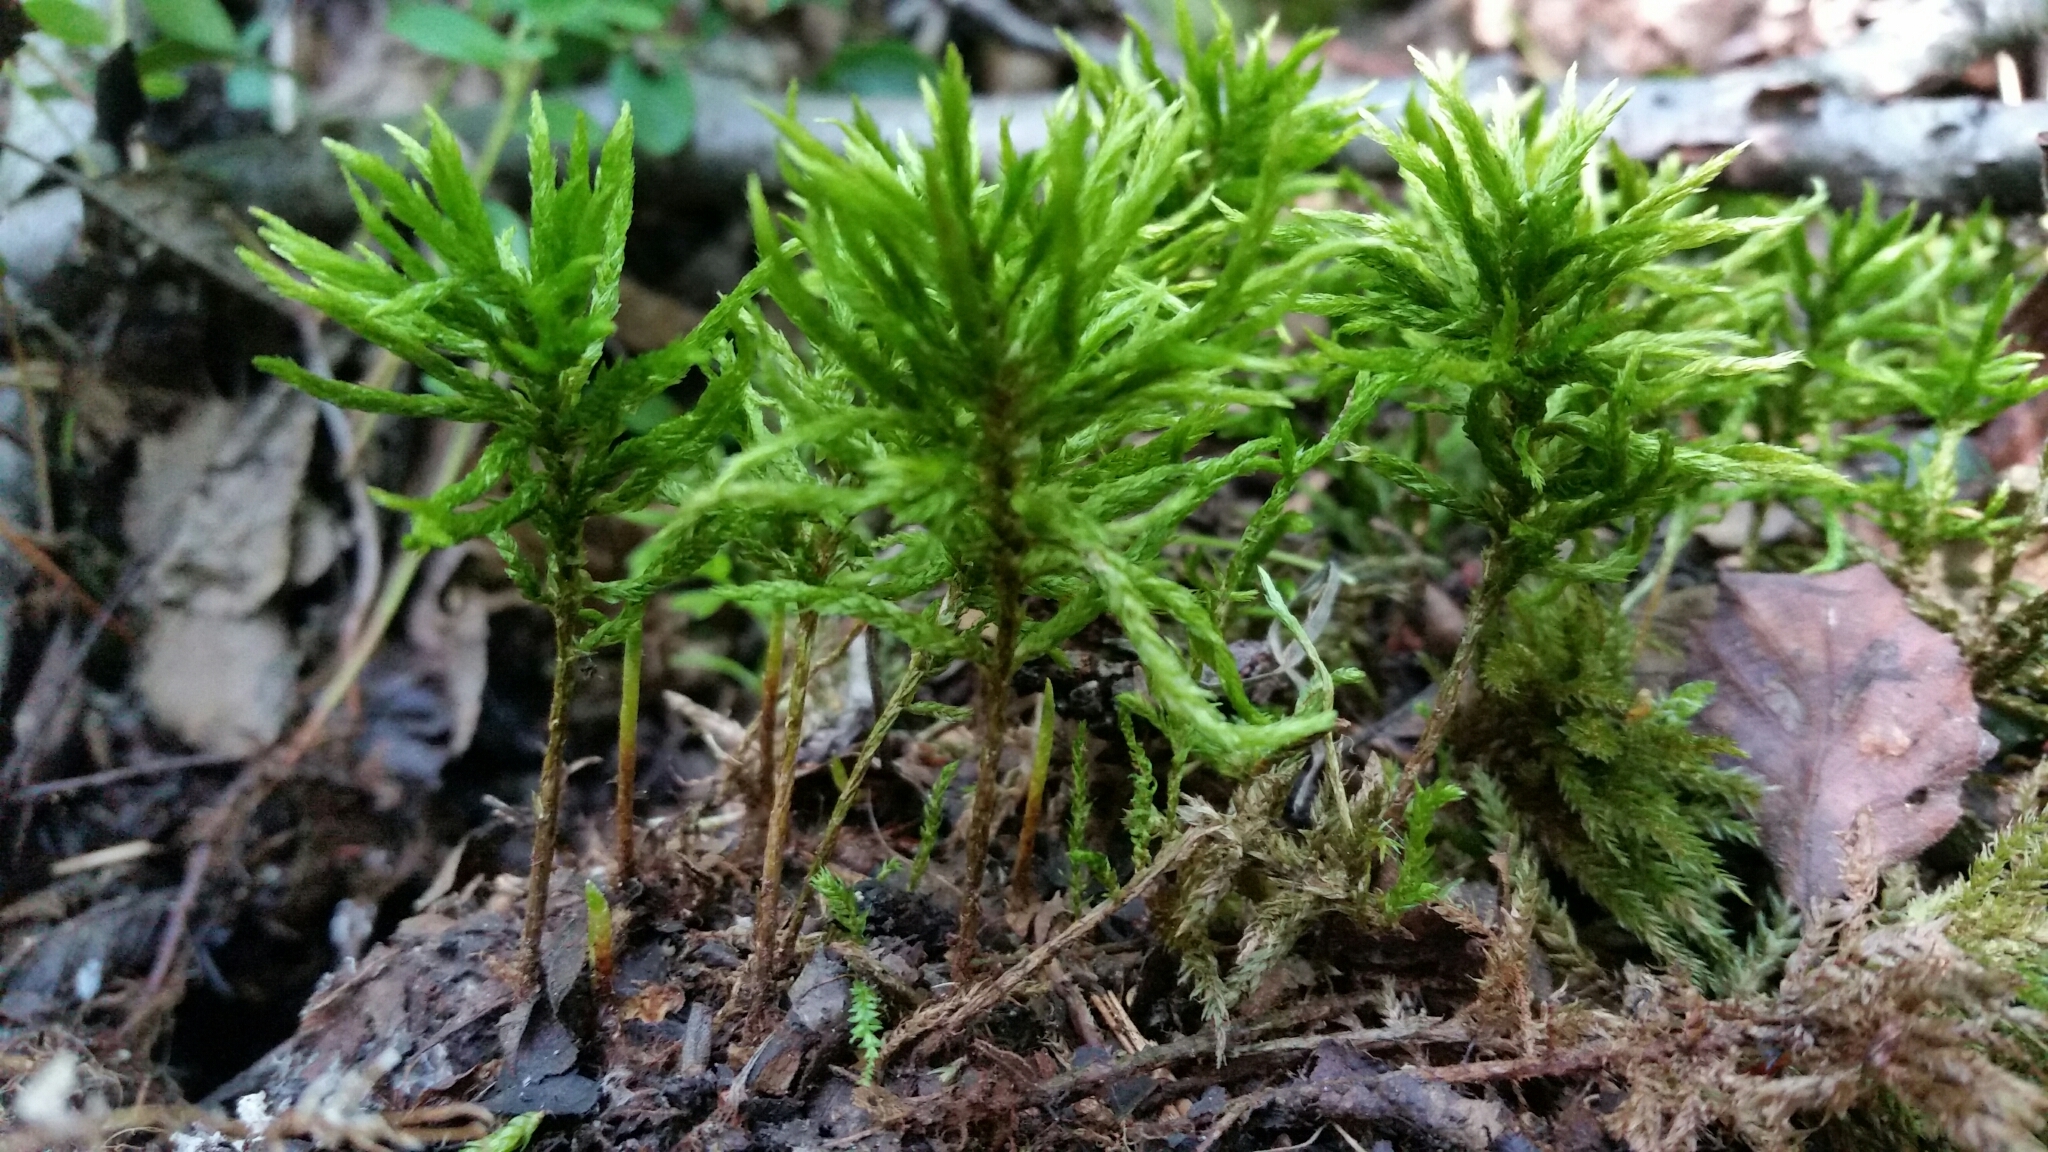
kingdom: Plantae
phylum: Bryophyta
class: Bryopsida
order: Hypnales
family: Climaciaceae
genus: Climacium
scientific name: Climacium dendroides
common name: Northern tree moss
